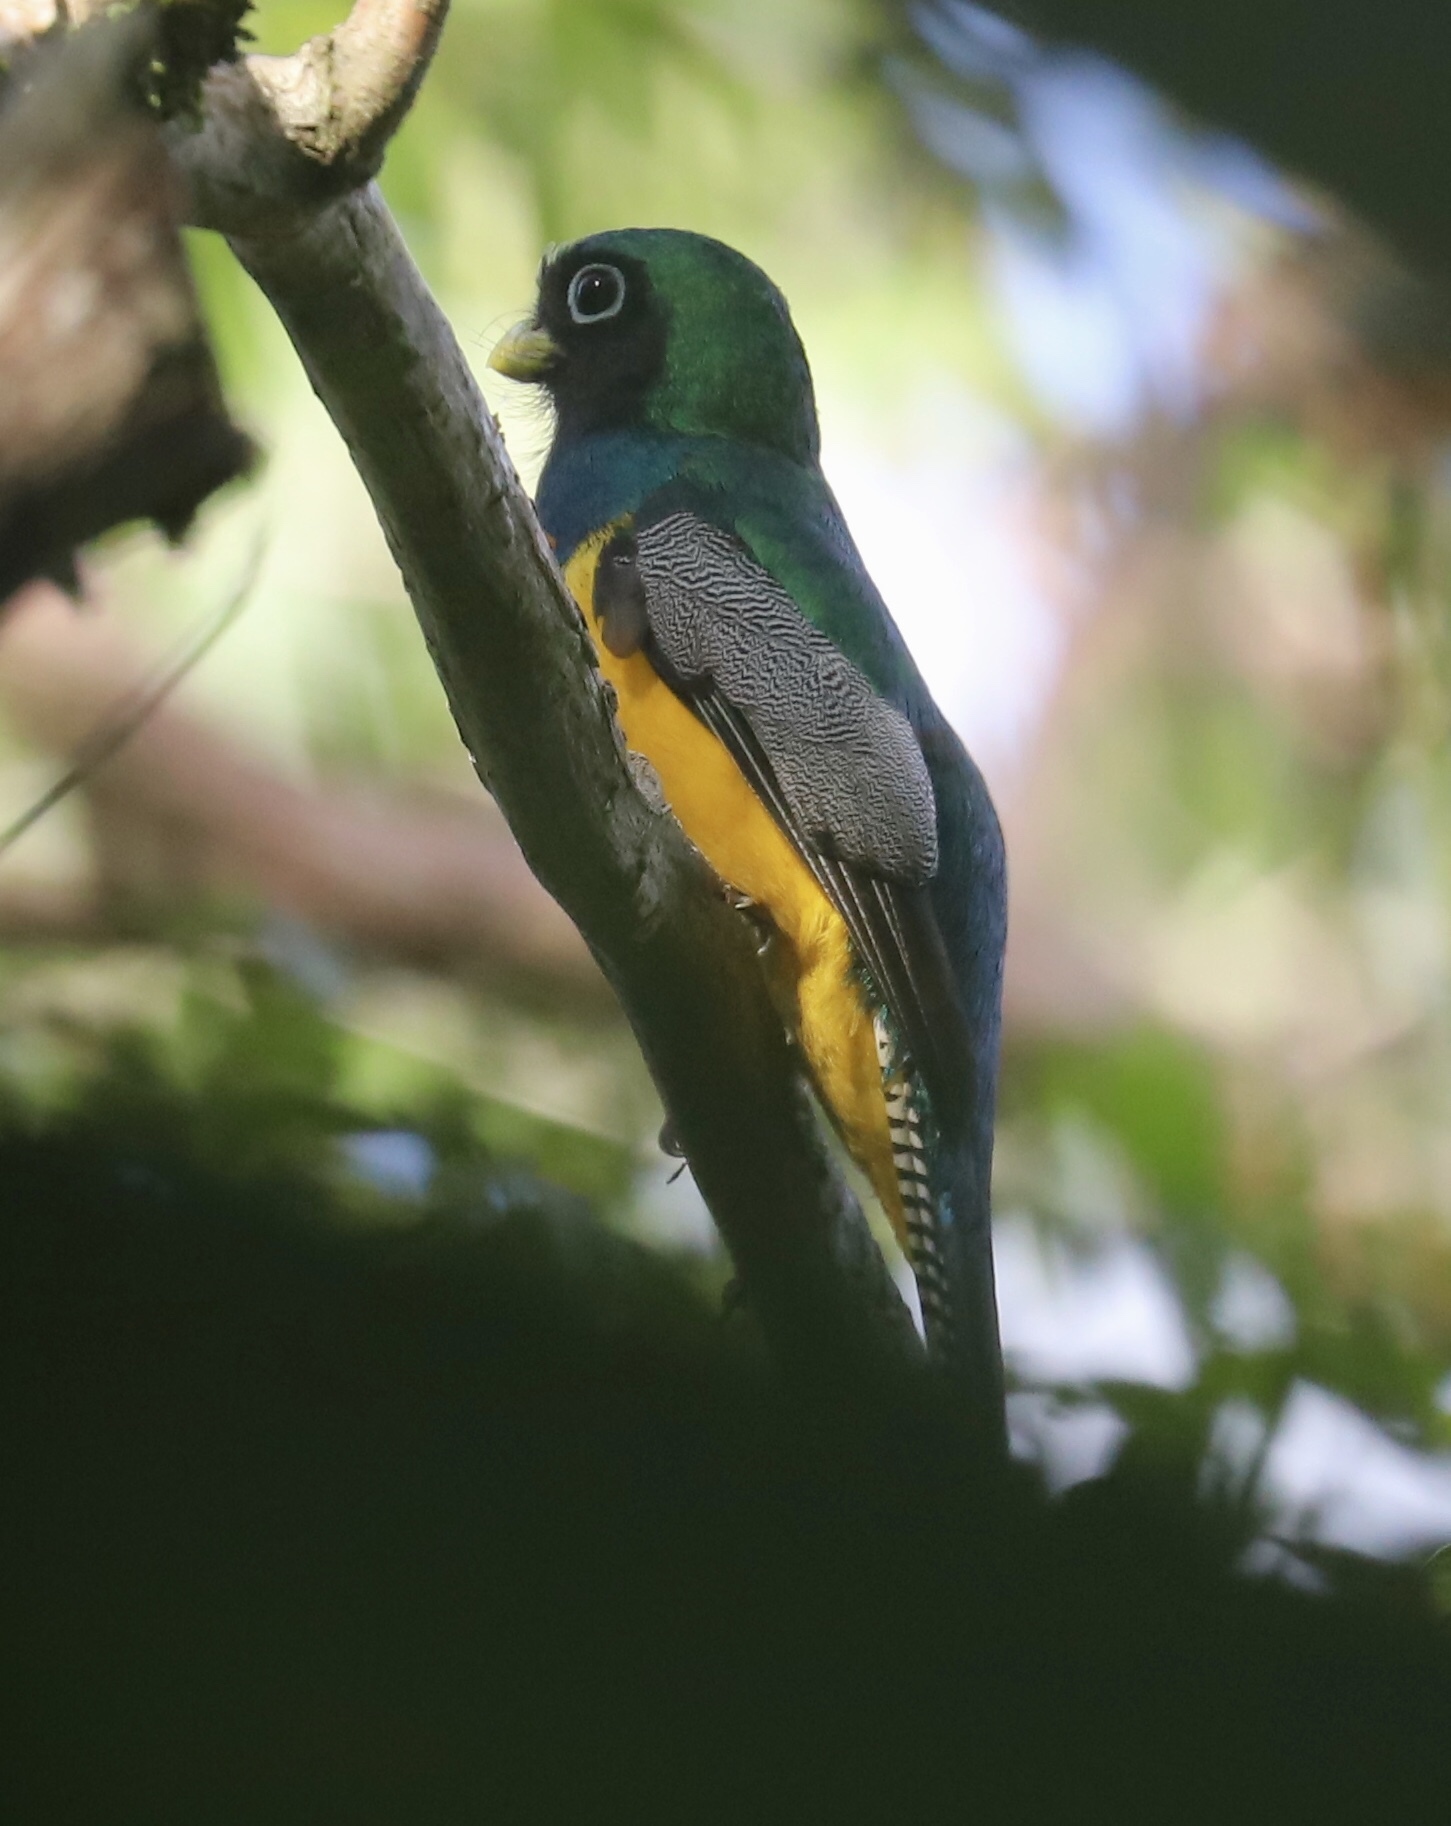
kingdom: Animalia
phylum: Chordata
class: Aves
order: Trogoniformes
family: Trogonidae
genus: Trogon
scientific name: Trogon rufus
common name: Black-throated trogon
